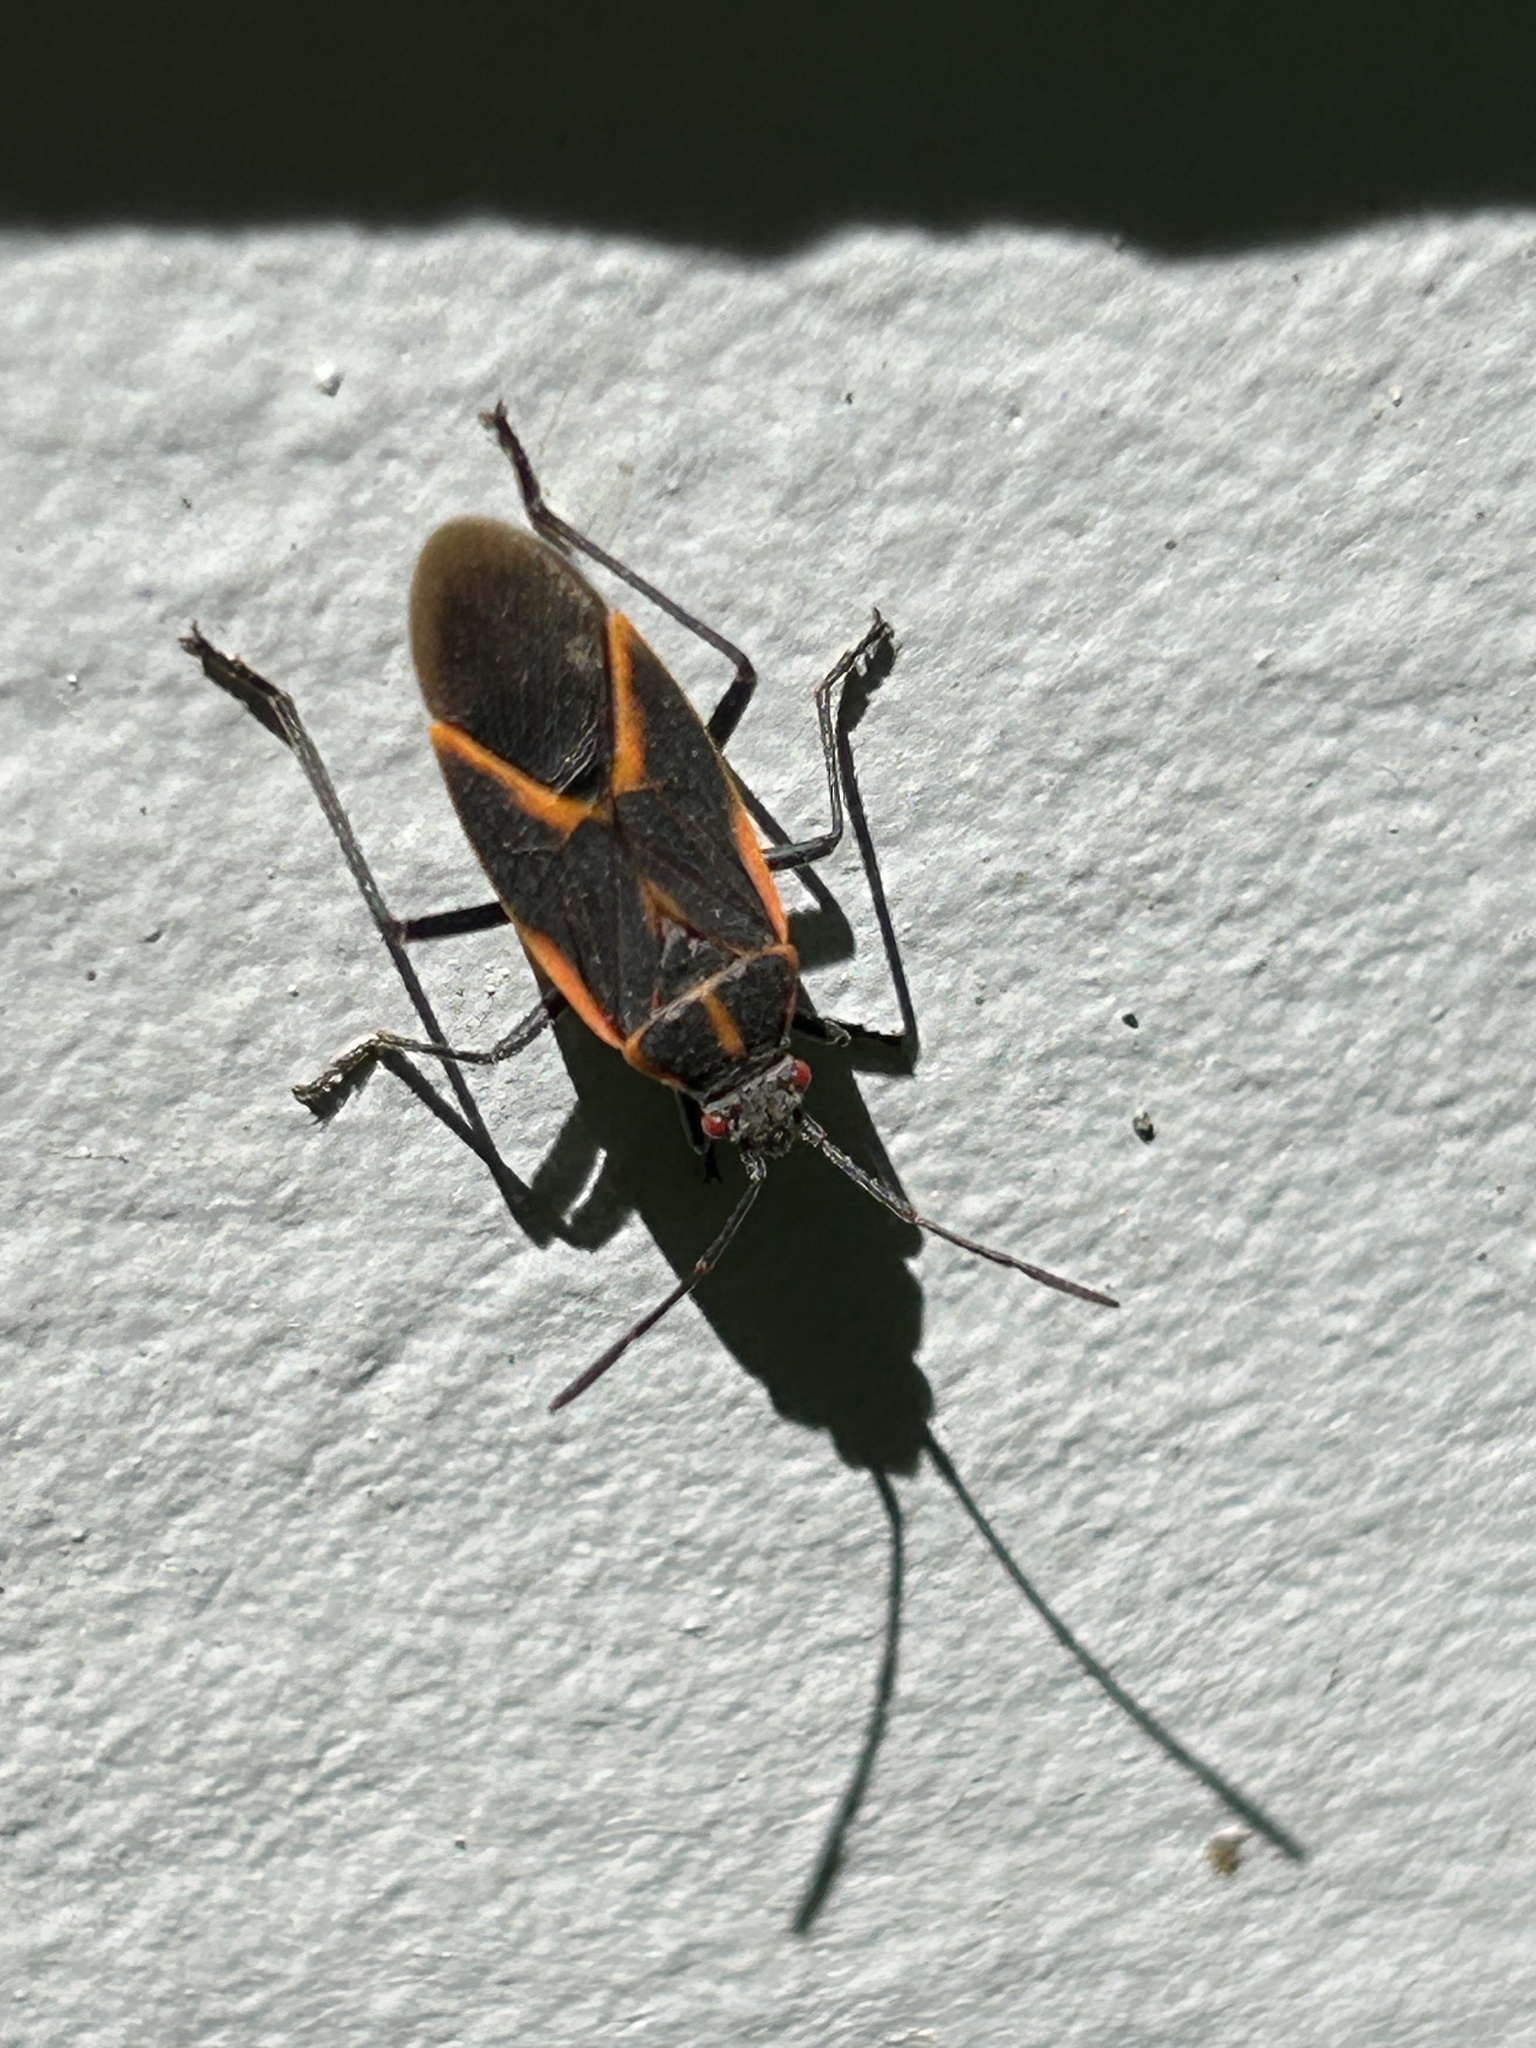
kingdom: Animalia
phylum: Arthropoda
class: Insecta
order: Hemiptera
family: Rhopalidae
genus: Boisea
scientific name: Boisea trivittata
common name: Boxelder bug
